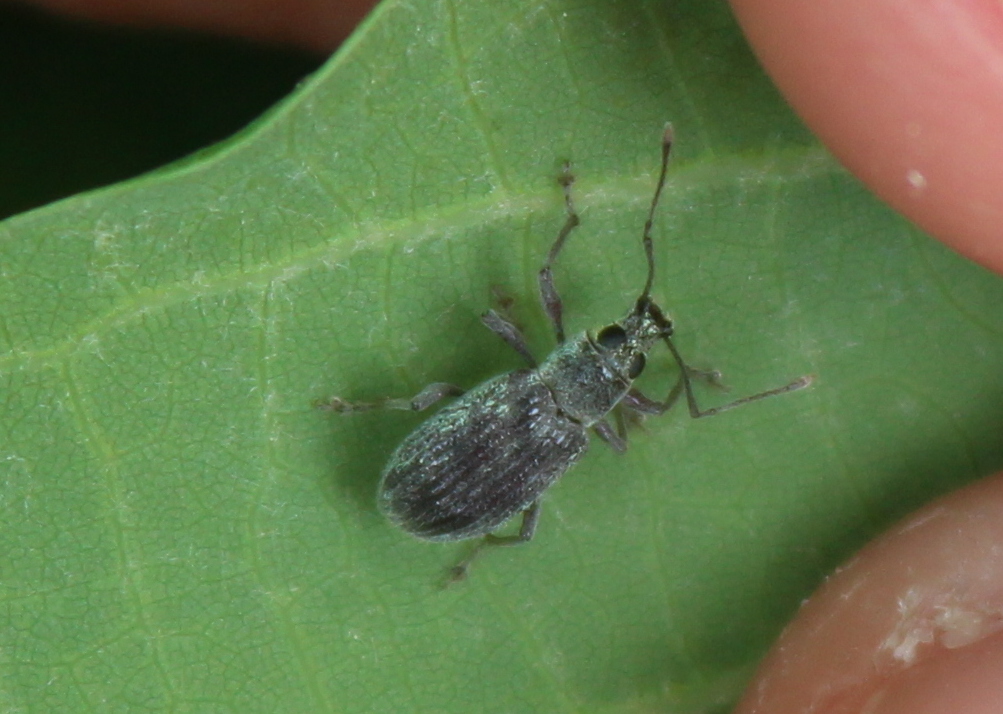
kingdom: Animalia
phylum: Arthropoda
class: Insecta
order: Coleoptera
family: Curculionidae
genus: Cyrtepistomus
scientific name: Cyrtepistomus castaneus
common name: Weevil
